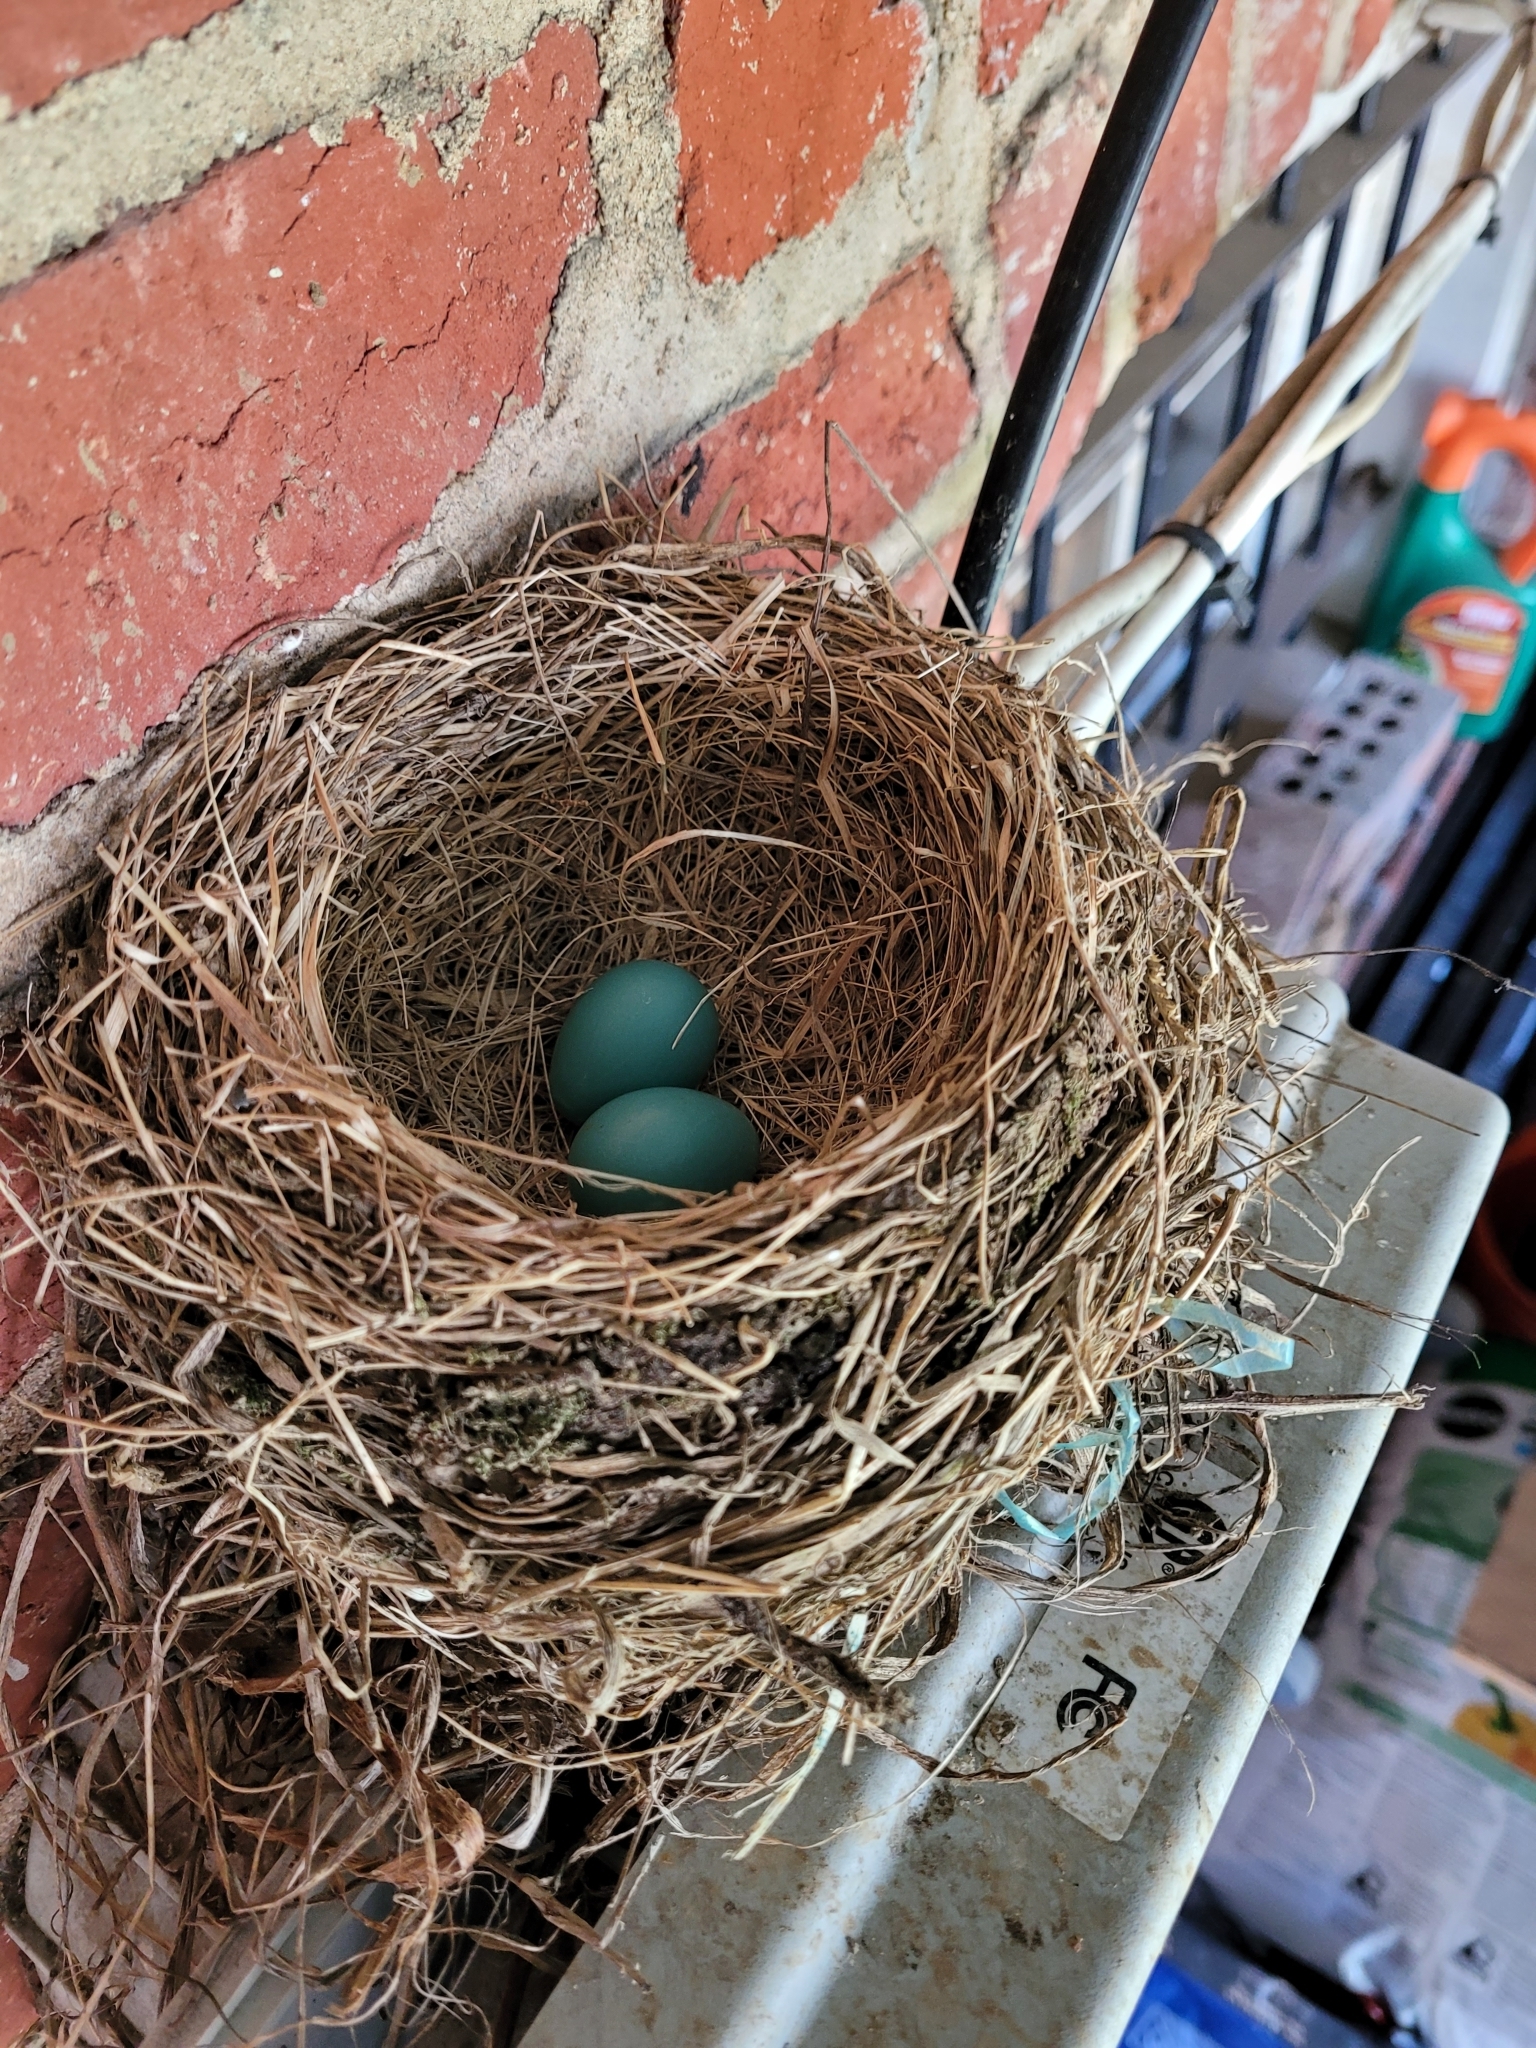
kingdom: Animalia
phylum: Chordata
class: Aves
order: Passeriformes
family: Turdidae
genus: Turdus
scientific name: Turdus migratorius
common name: American robin
